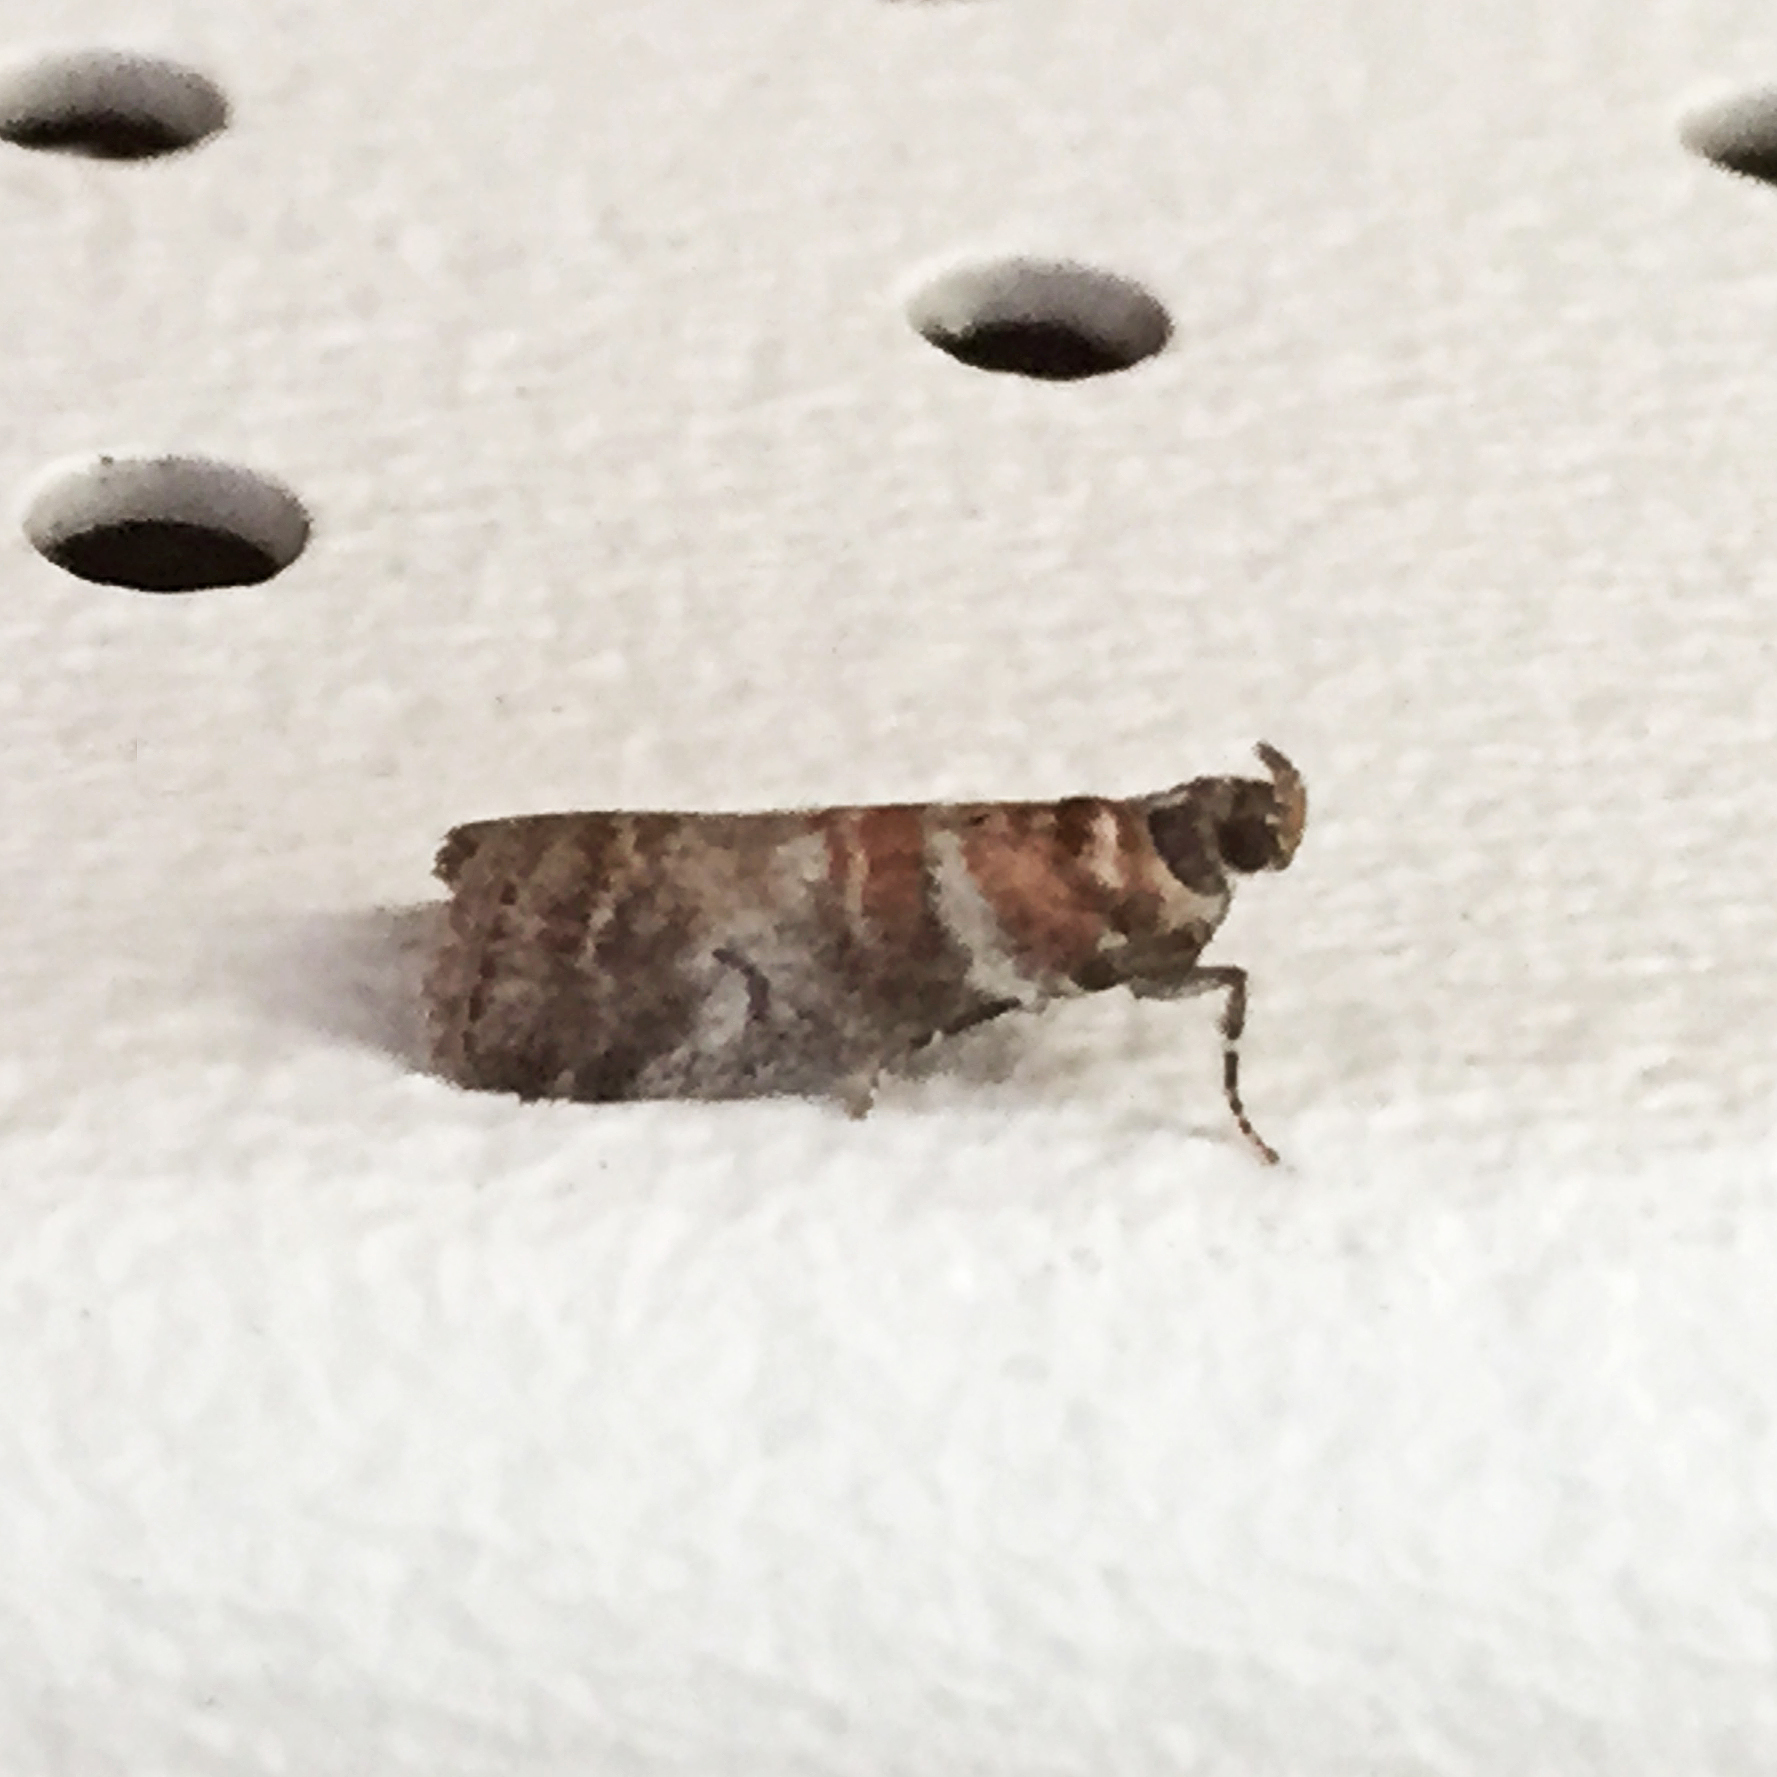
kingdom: Animalia
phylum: Arthropoda
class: Insecta
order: Lepidoptera
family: Pyralidae
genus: Sciota
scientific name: Sciota uvinella
